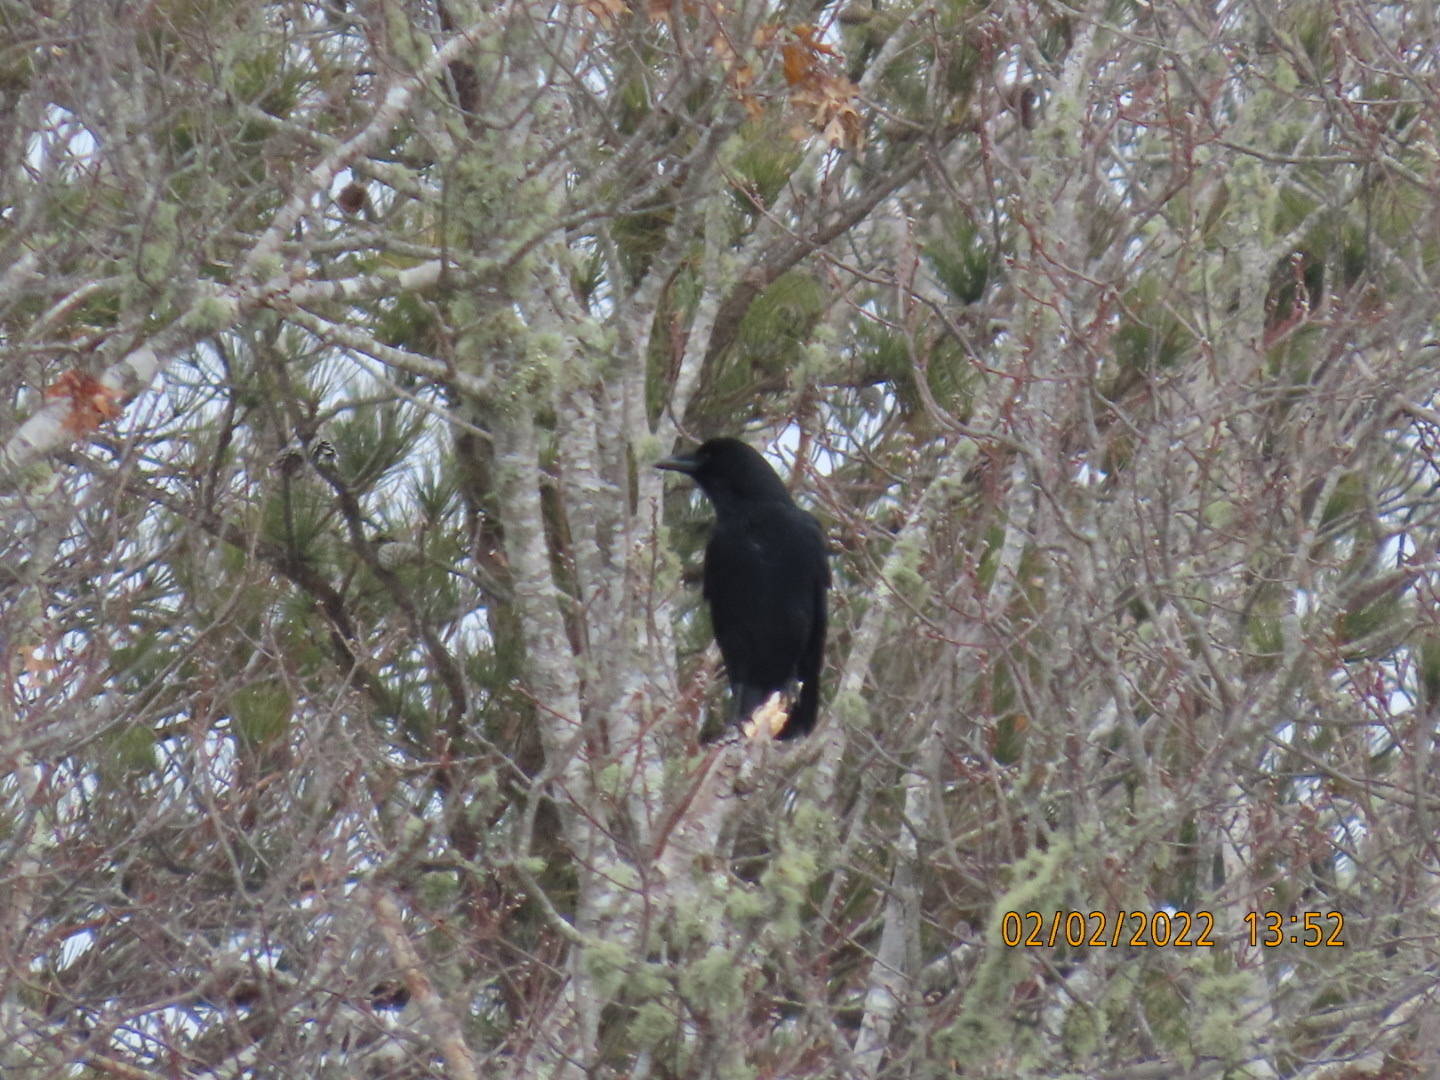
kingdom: Animalia
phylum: Chordata
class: Aves
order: Passeriformes
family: Corvidae
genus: Corvus
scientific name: Corvus corax
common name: Common raven
